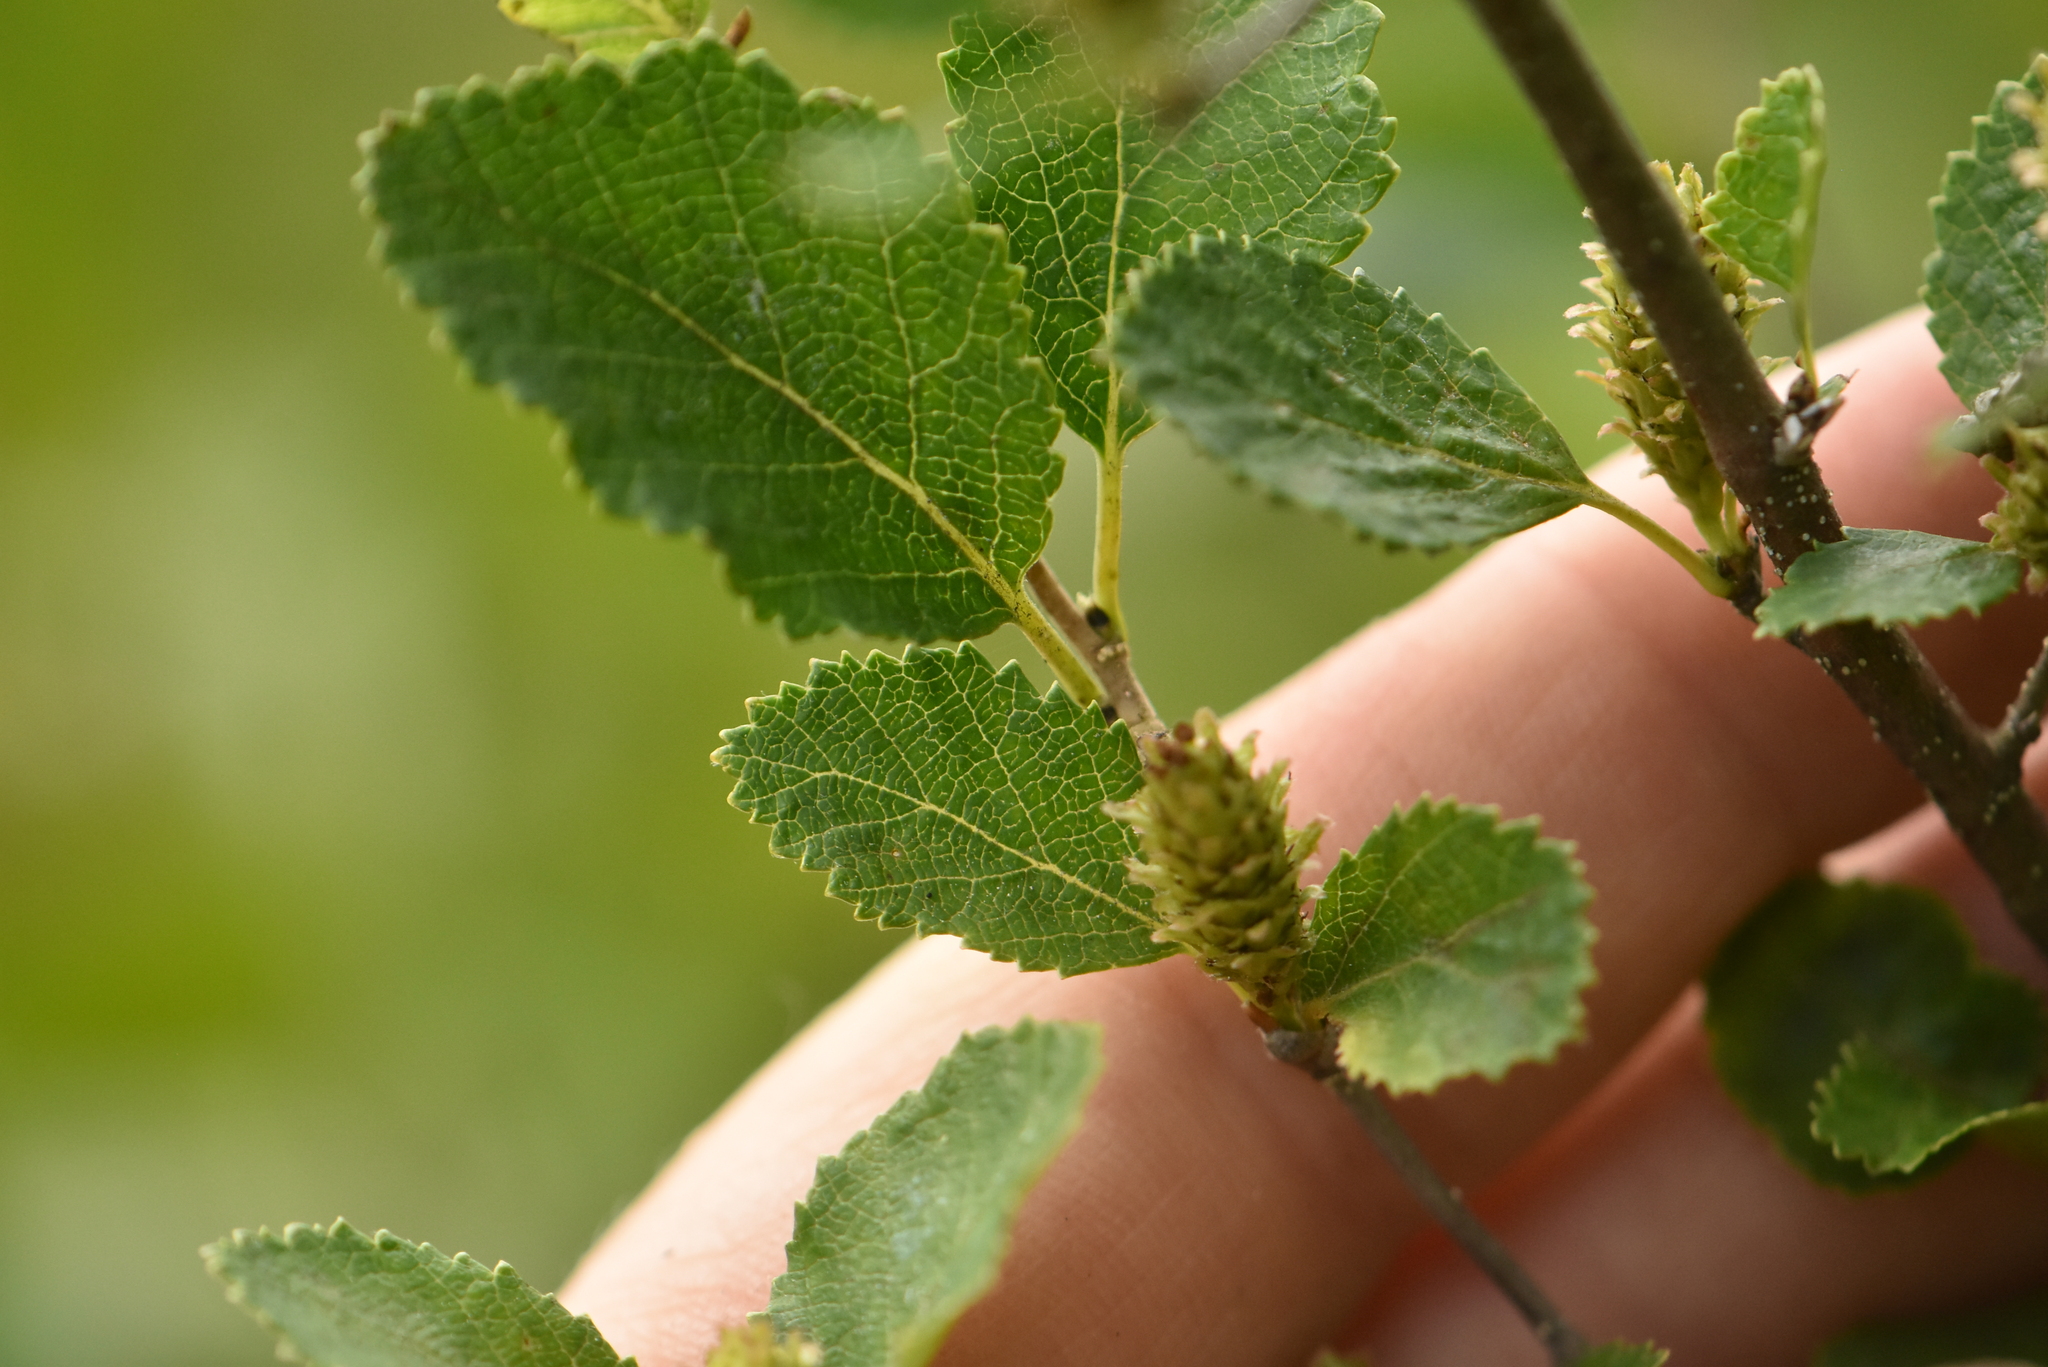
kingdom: Plantae
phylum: Tracheophyta
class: Magnoliopsida
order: Fagales
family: Betulaceae
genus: Betula
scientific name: Betula humilis
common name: Shrubby birch
